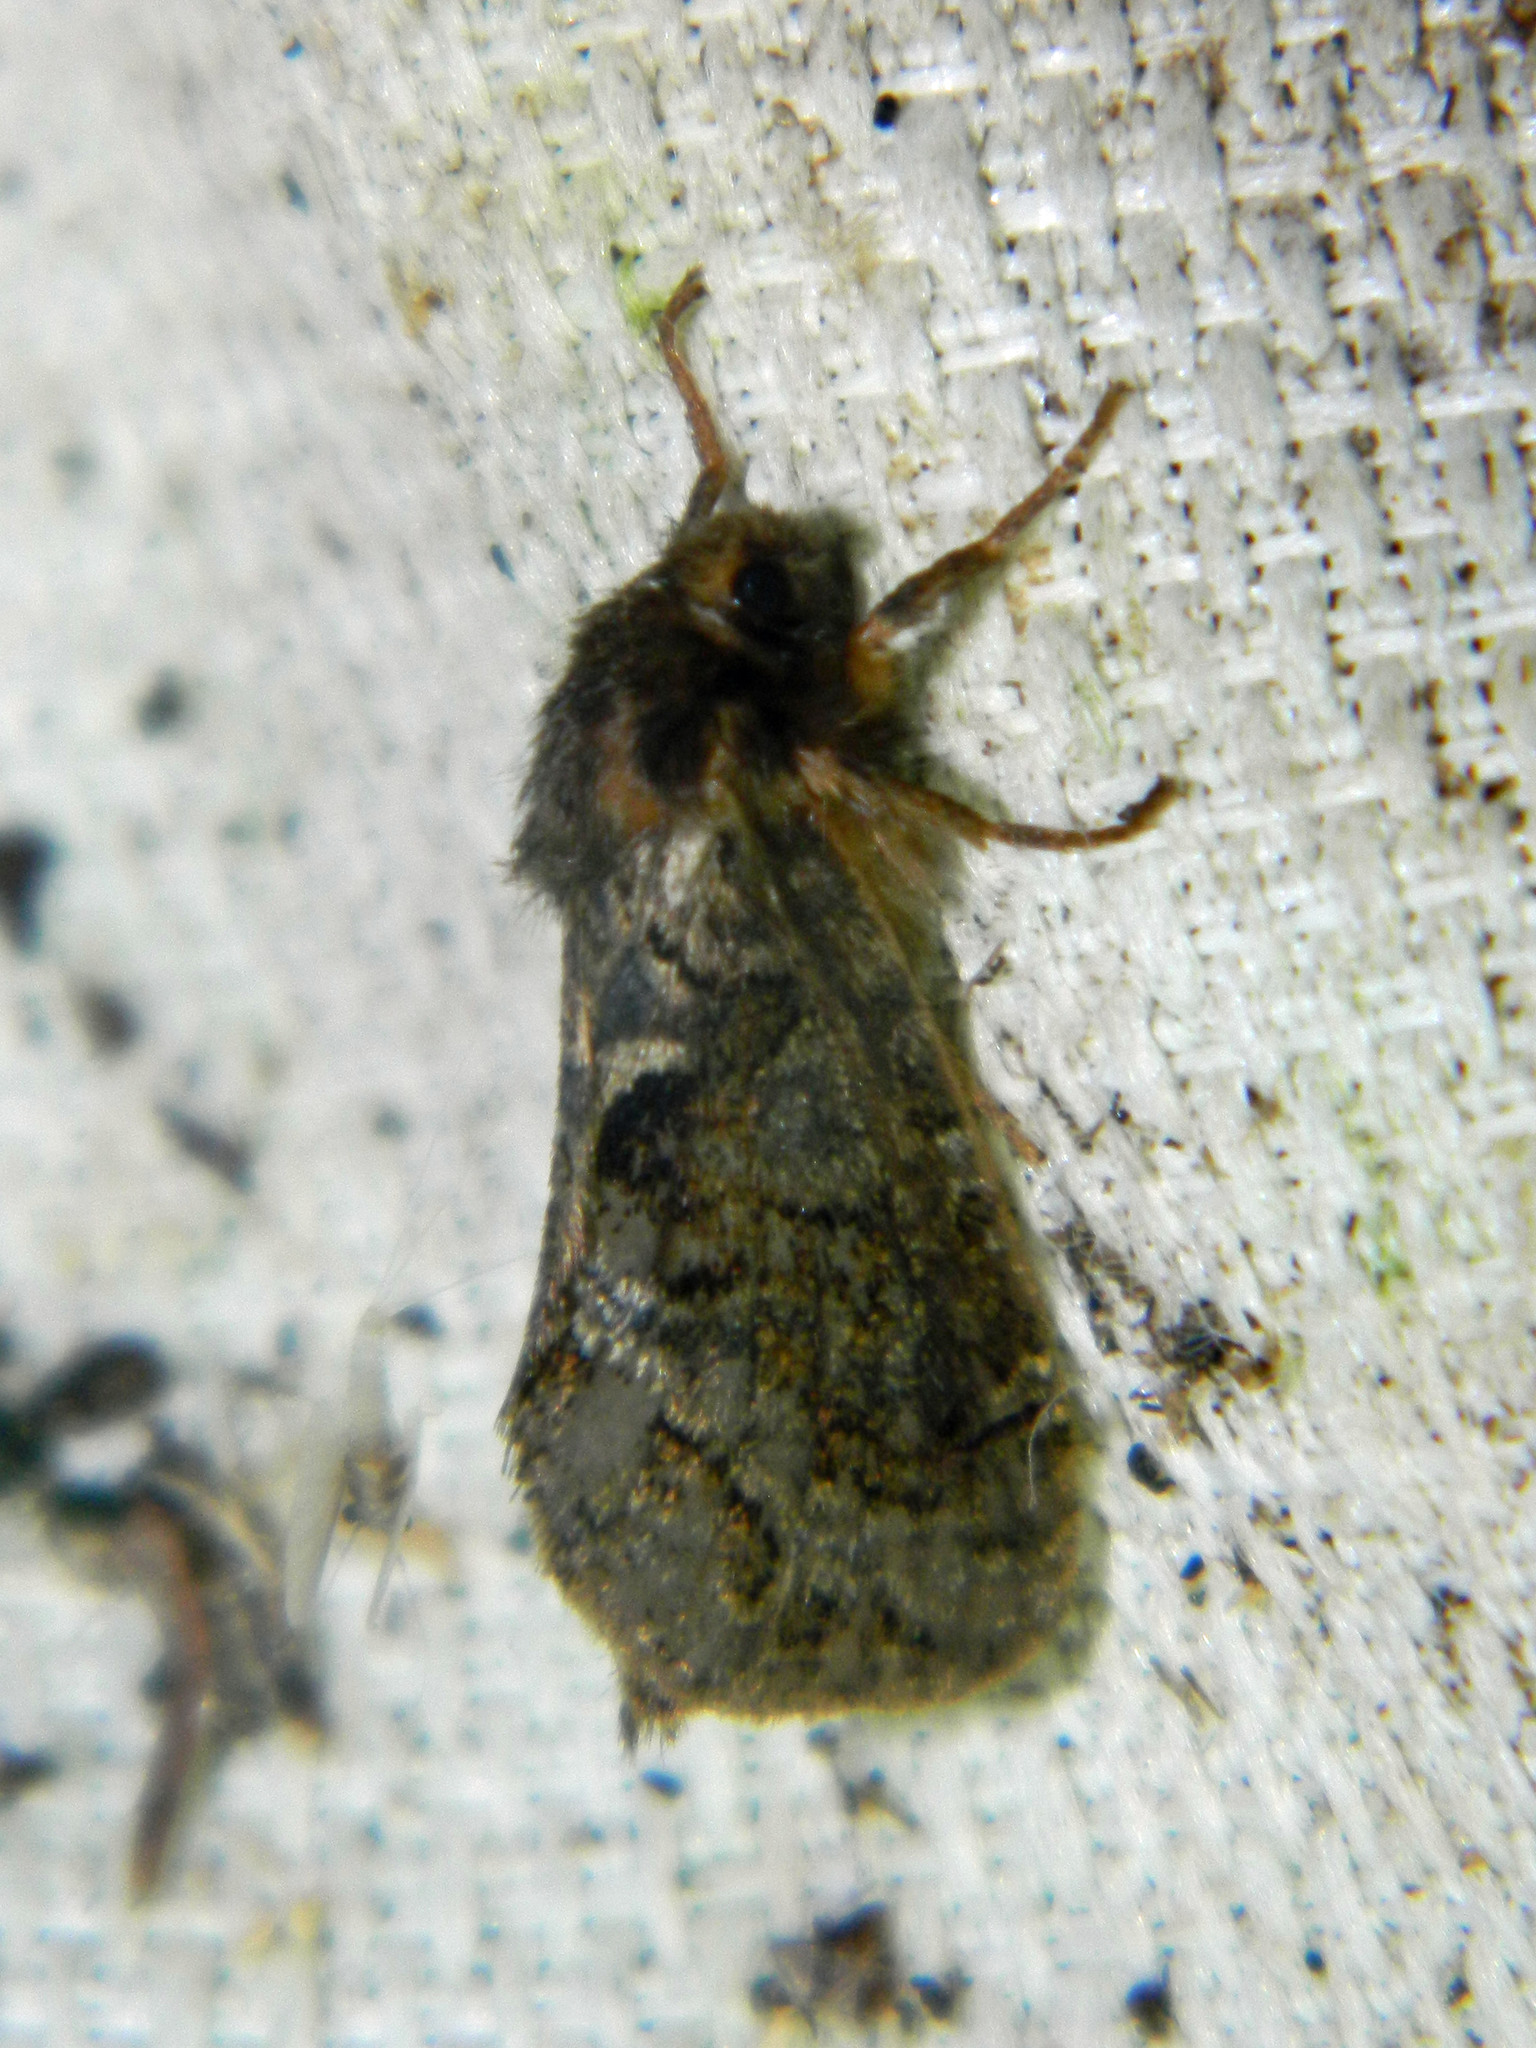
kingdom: Animalia
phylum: Arthropoda
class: Insecta
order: Lepidoptera
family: Hepialidae
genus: Korscheltellus
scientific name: Korscheltellus gracilis
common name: Conifer swift moth
